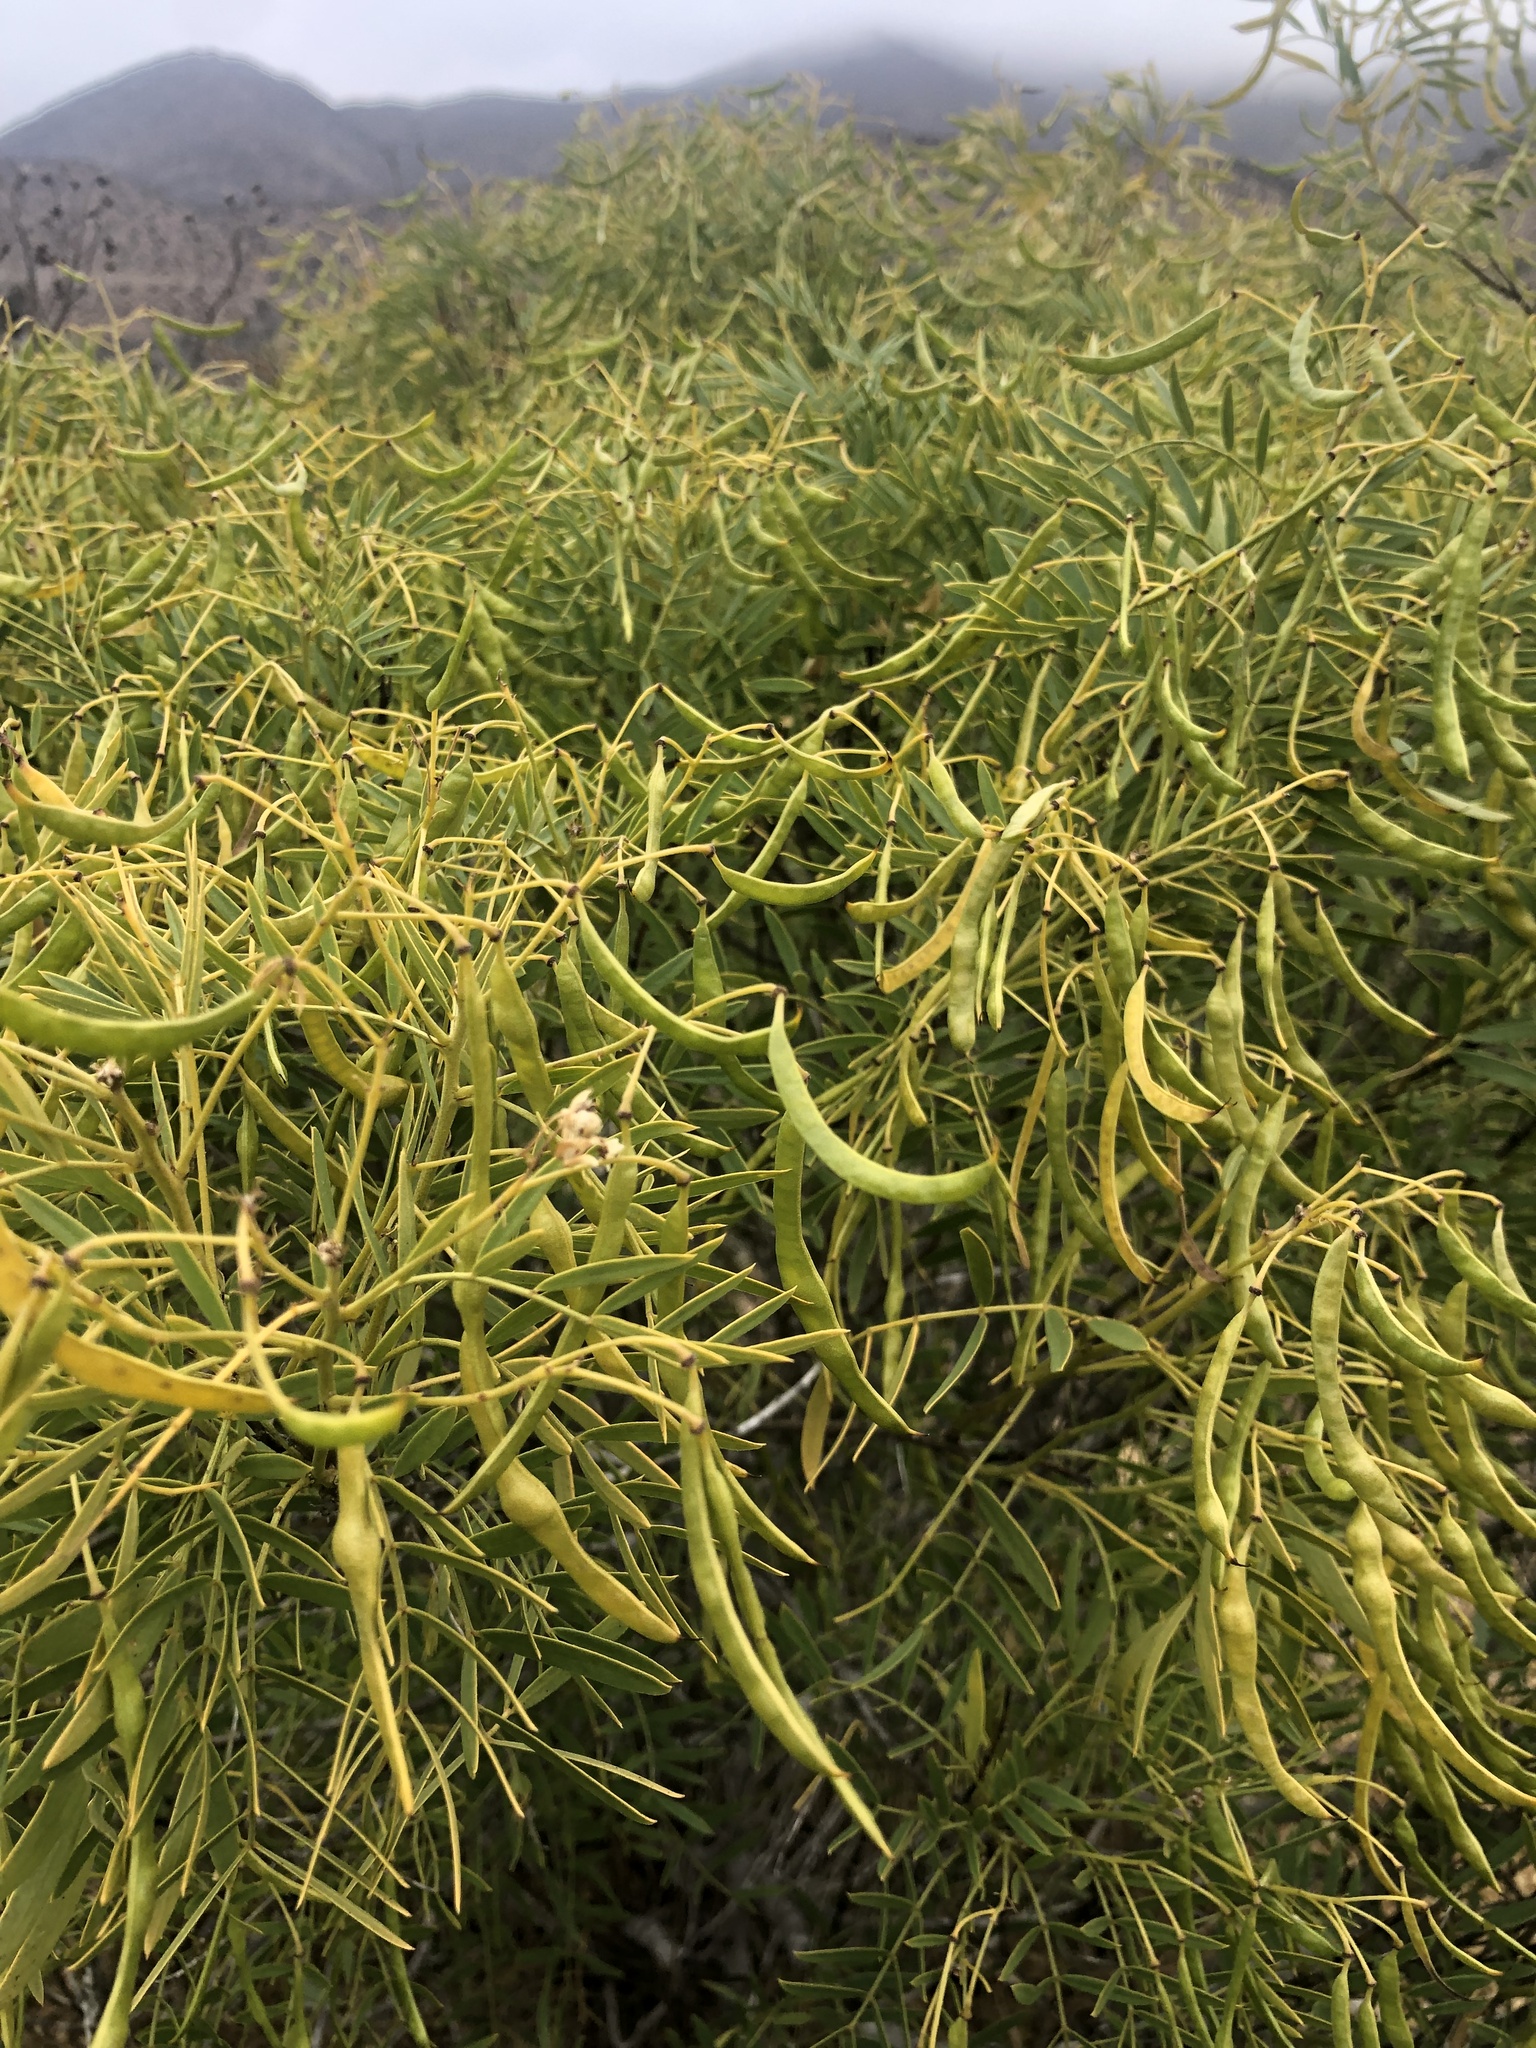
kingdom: Plantae
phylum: Tracheophyta
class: Magnoliopsida
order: Fabales
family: Fabaceae
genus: Senna
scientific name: Senna cumingii
